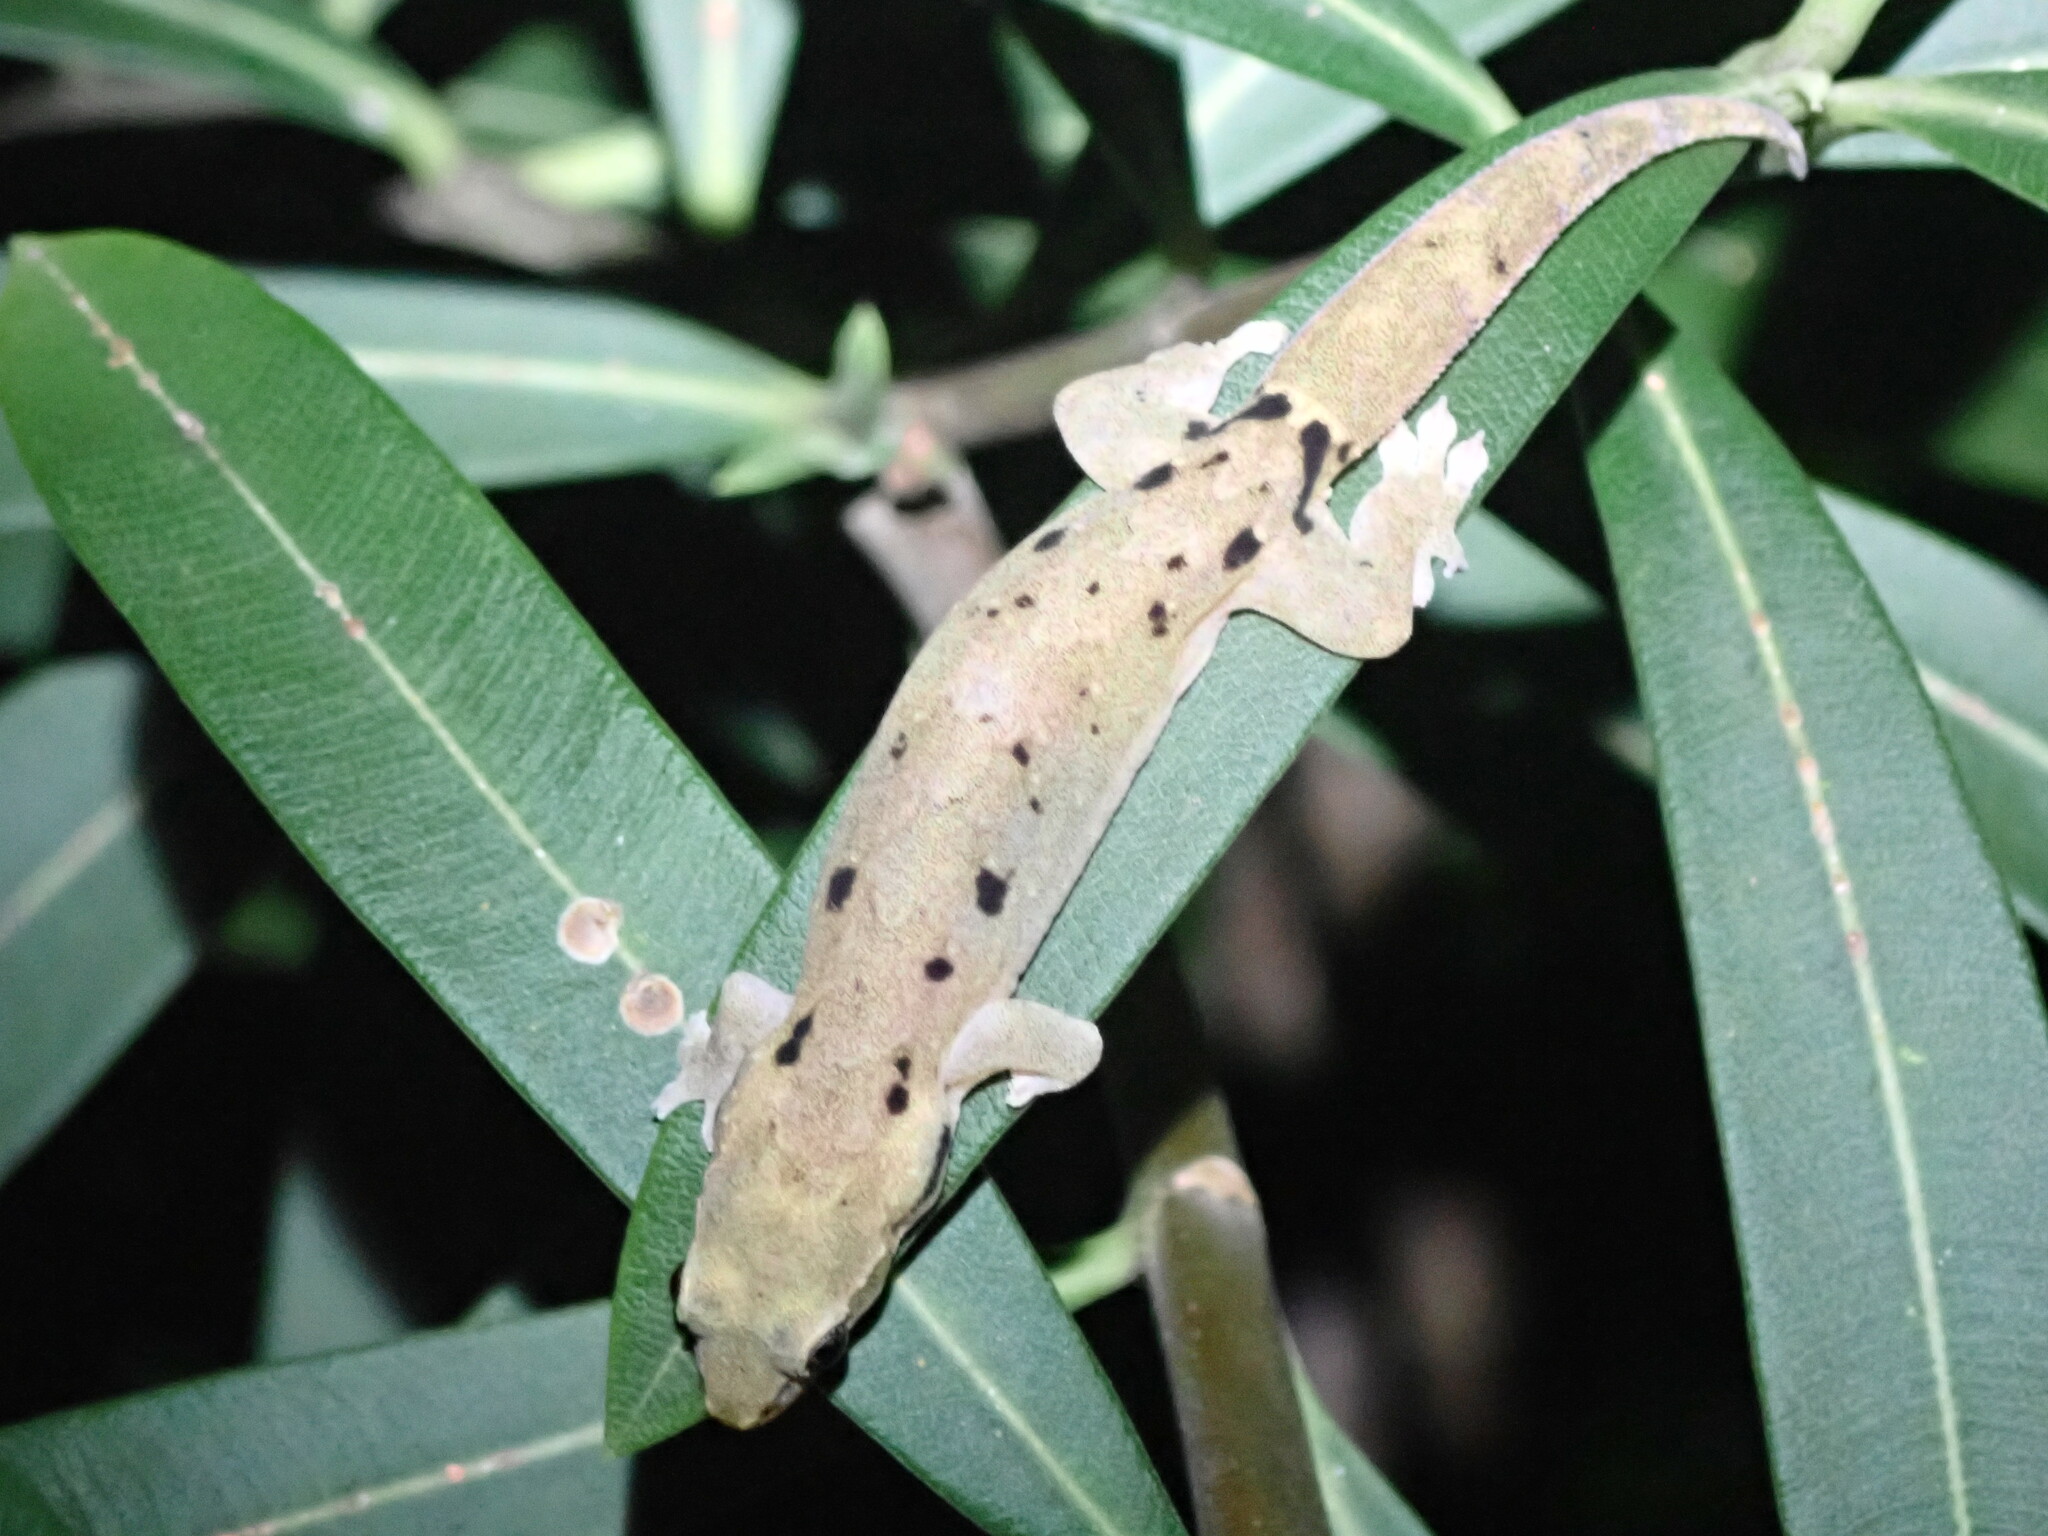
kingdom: Animalia
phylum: Chordata
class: Squamata
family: Gekkonidae
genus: Lepidodactylus
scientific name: Lepidodactylus lugubris
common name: Mourning gecko
